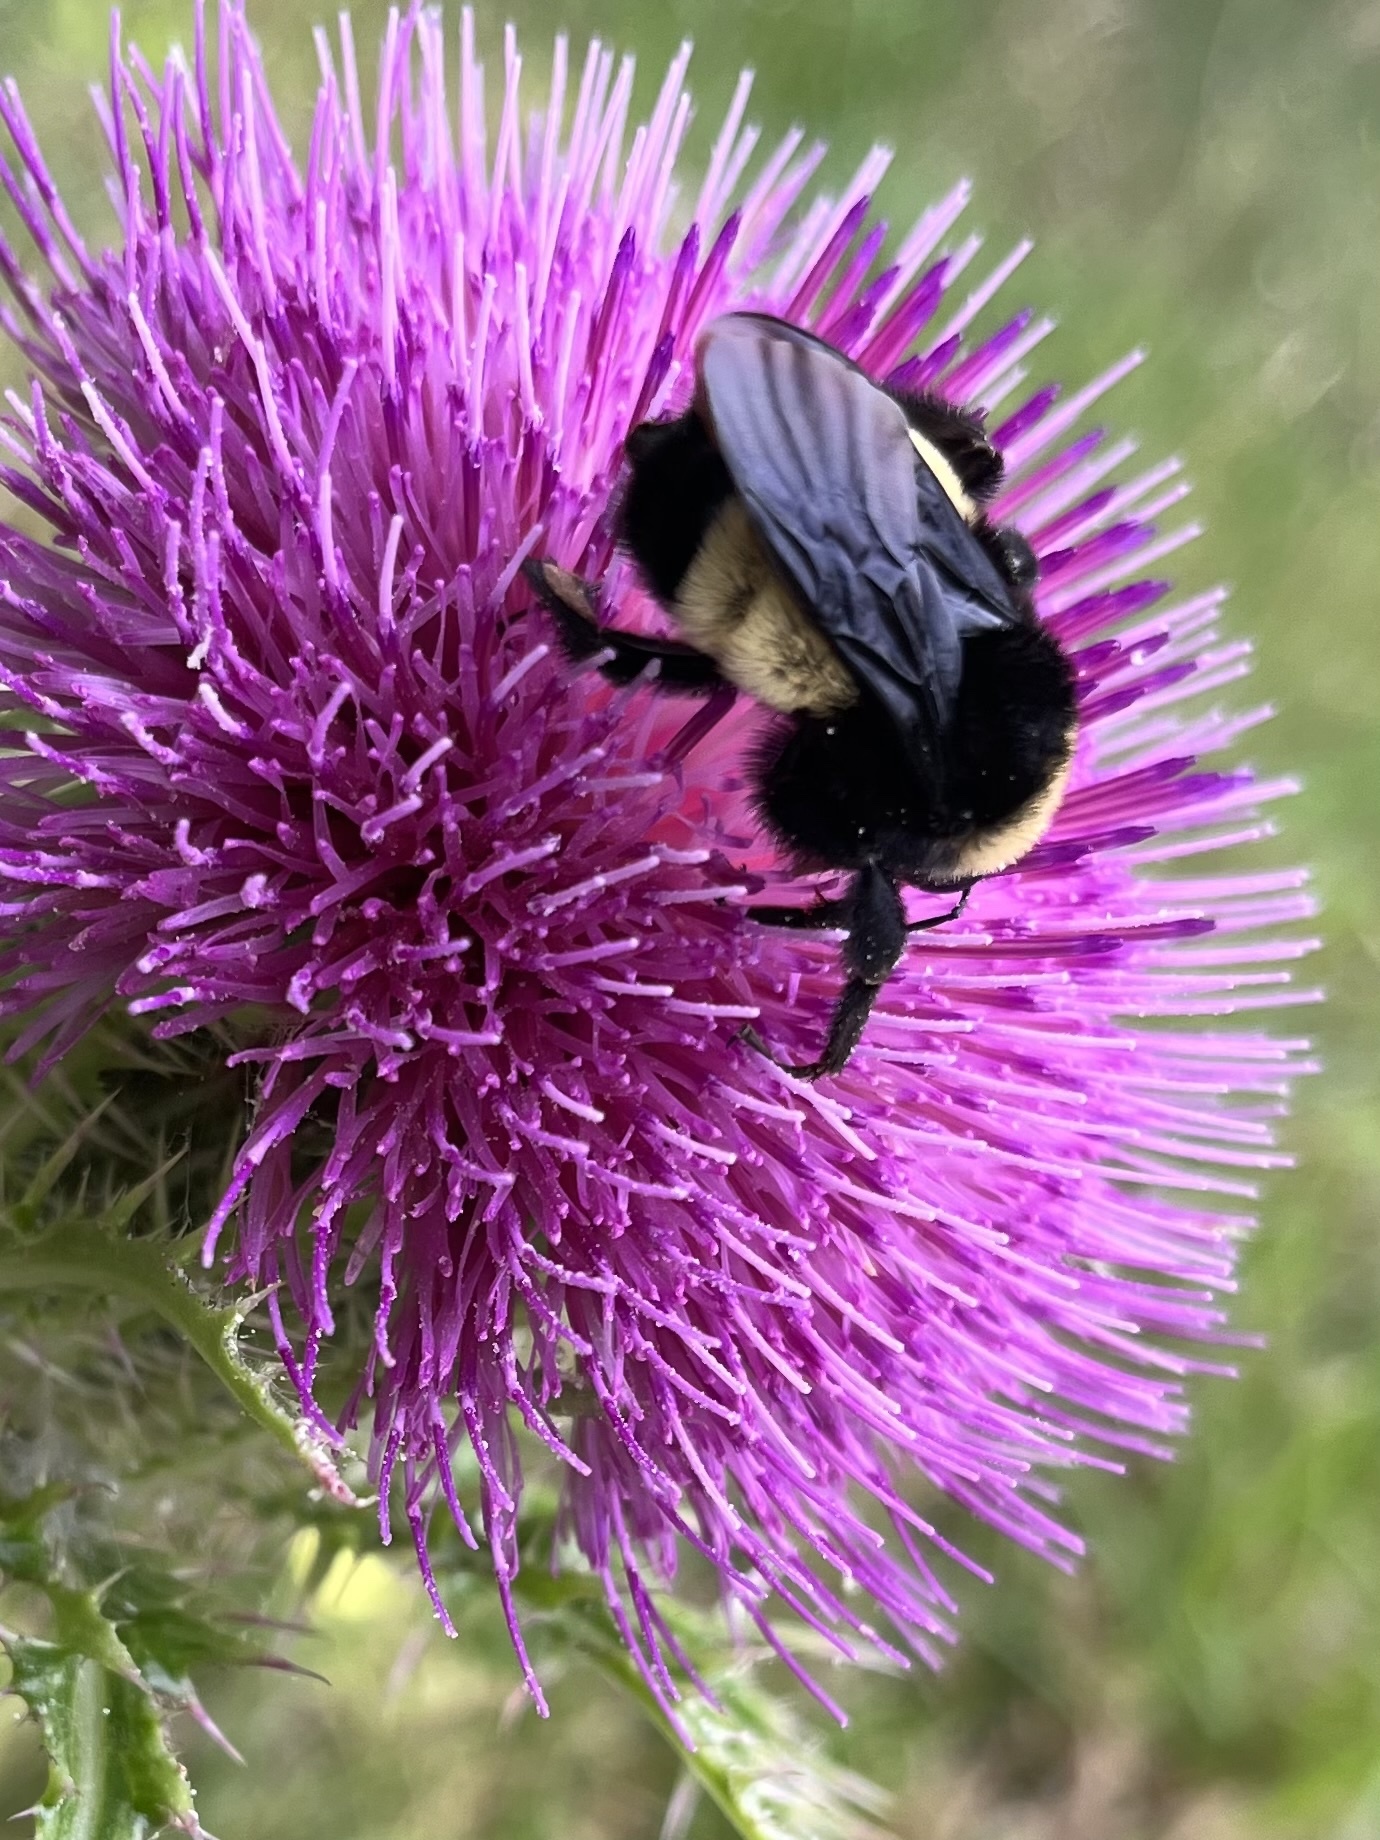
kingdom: Animalia
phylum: Arthropoda
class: Insecta
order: Hymenoptera
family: Apidae
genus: Bombus
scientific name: Bombus pensylvanicus
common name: Bumble bee
